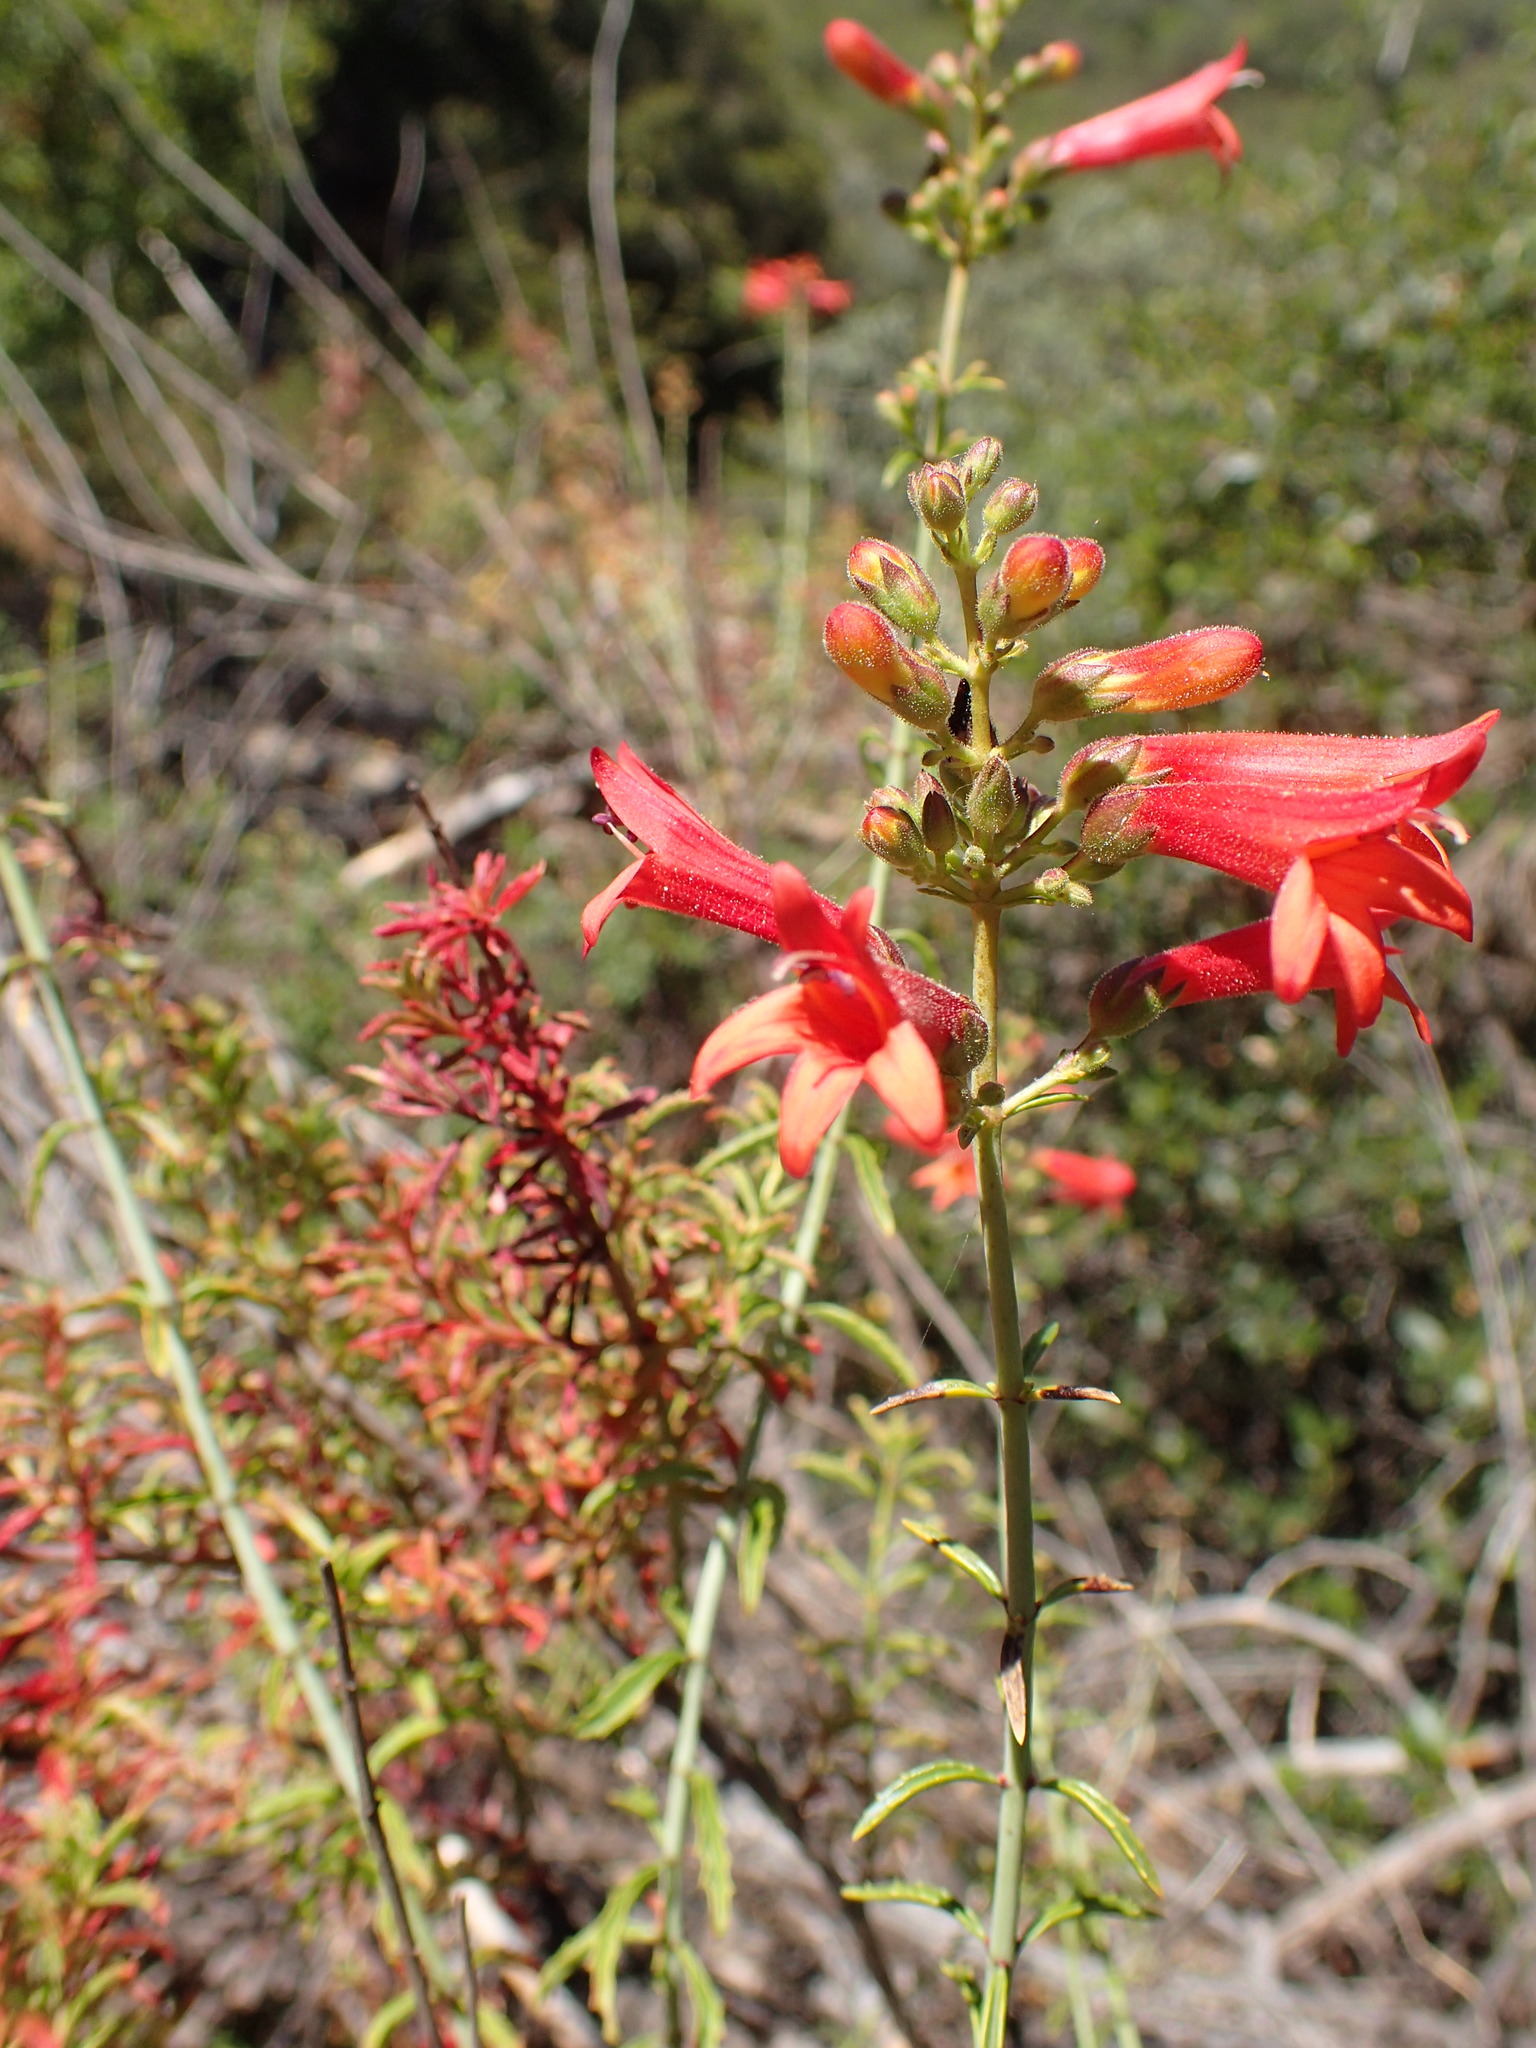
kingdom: Plantae
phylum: Tracheophyta
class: Magnoliopsida
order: Lamiales
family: Plantaginaceae
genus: Keckiella
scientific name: Keckiella ternata
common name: Scarlet keckiella
